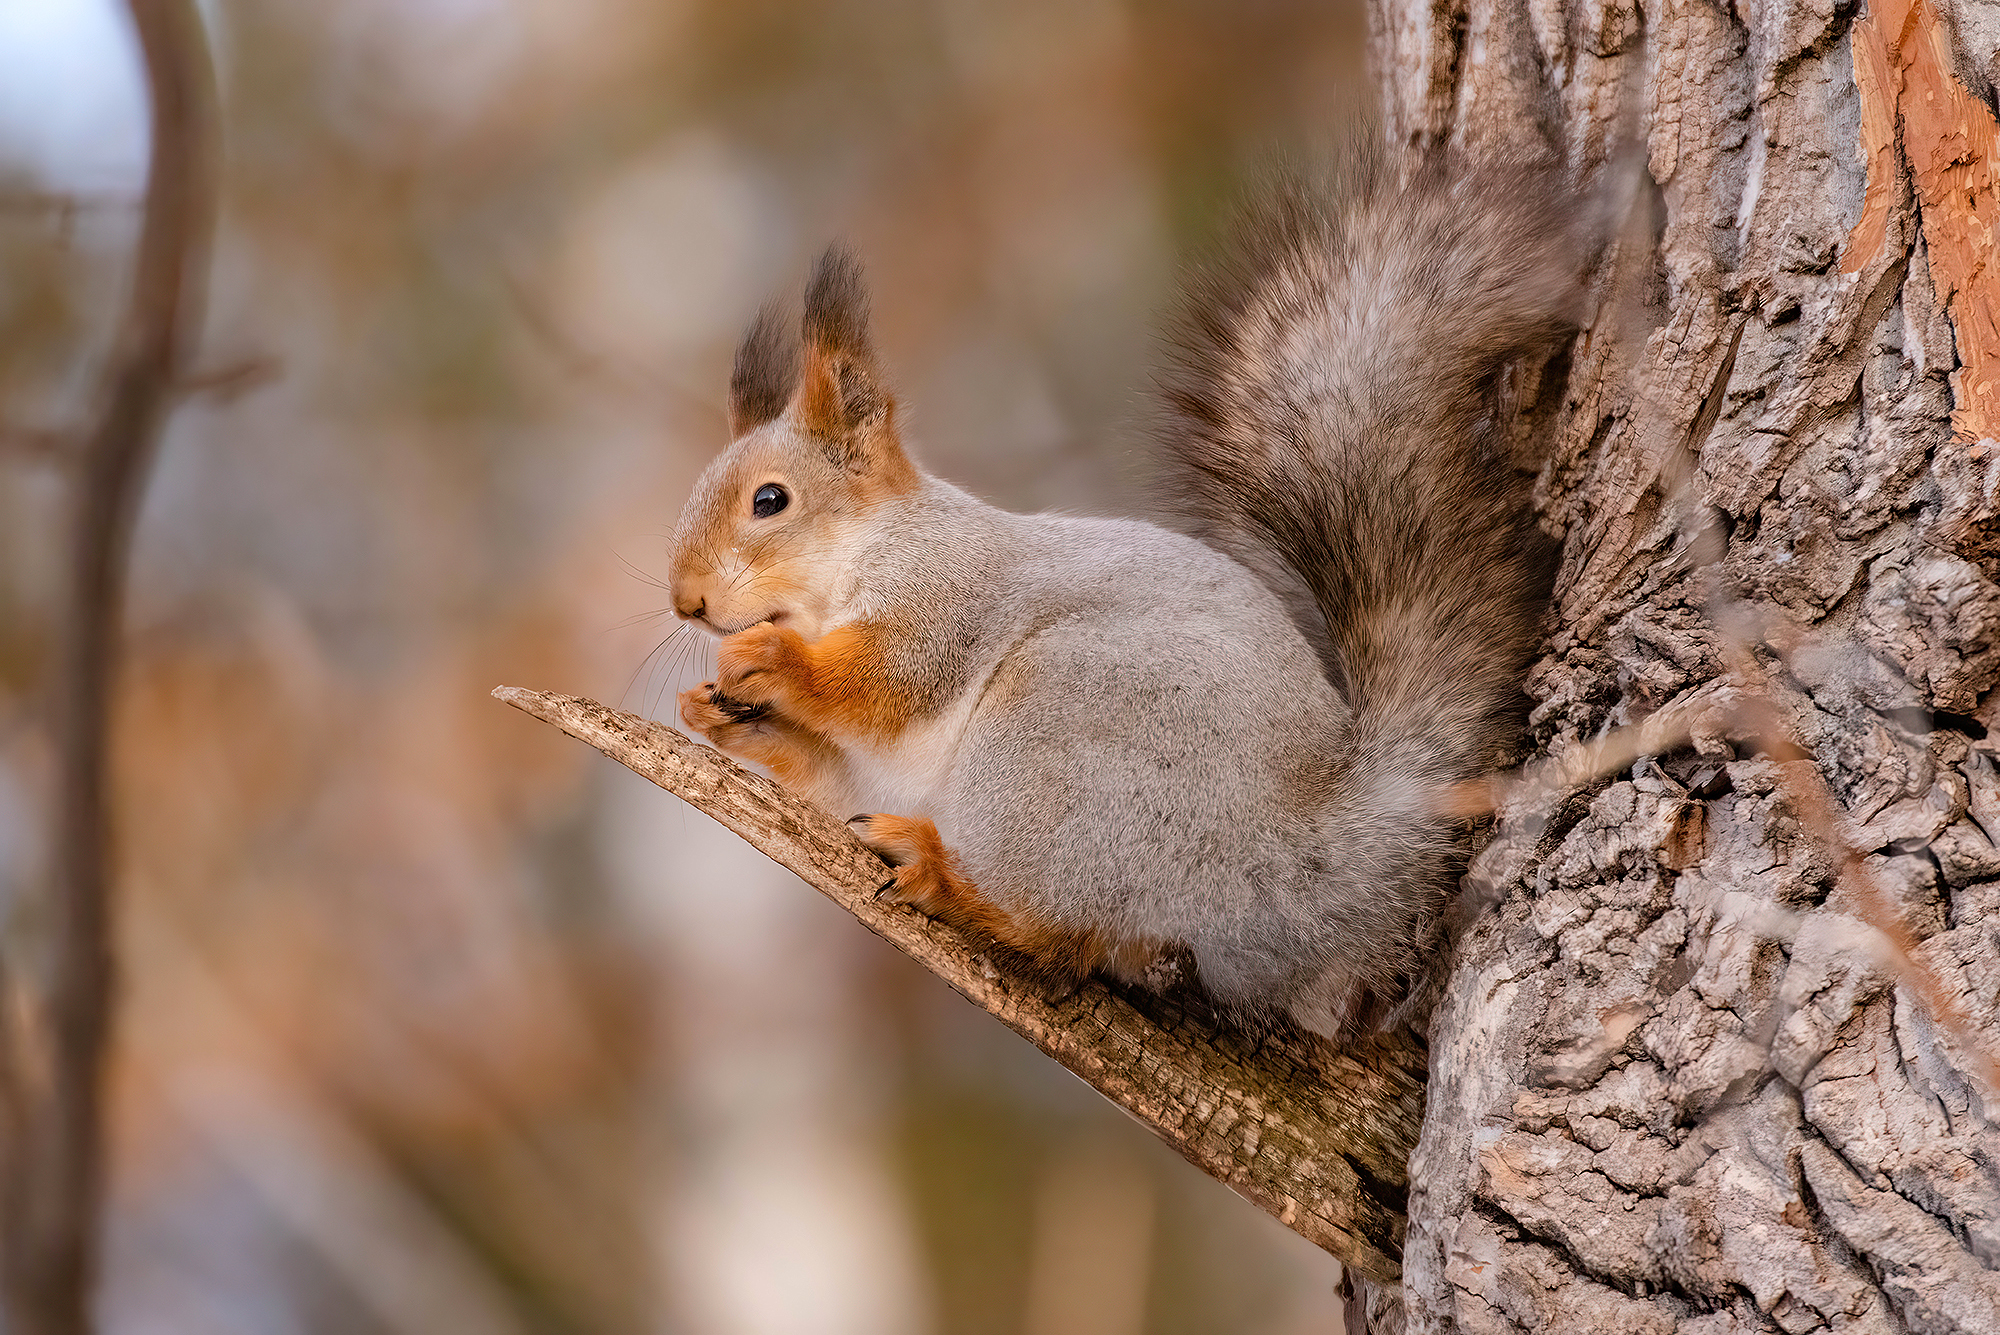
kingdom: Animalia
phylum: Chordata
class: Mammalia
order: Rodentia
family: Sciuridae
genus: Sciurus
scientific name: Sciurus vulgaris
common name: Eurasian red squirrel
